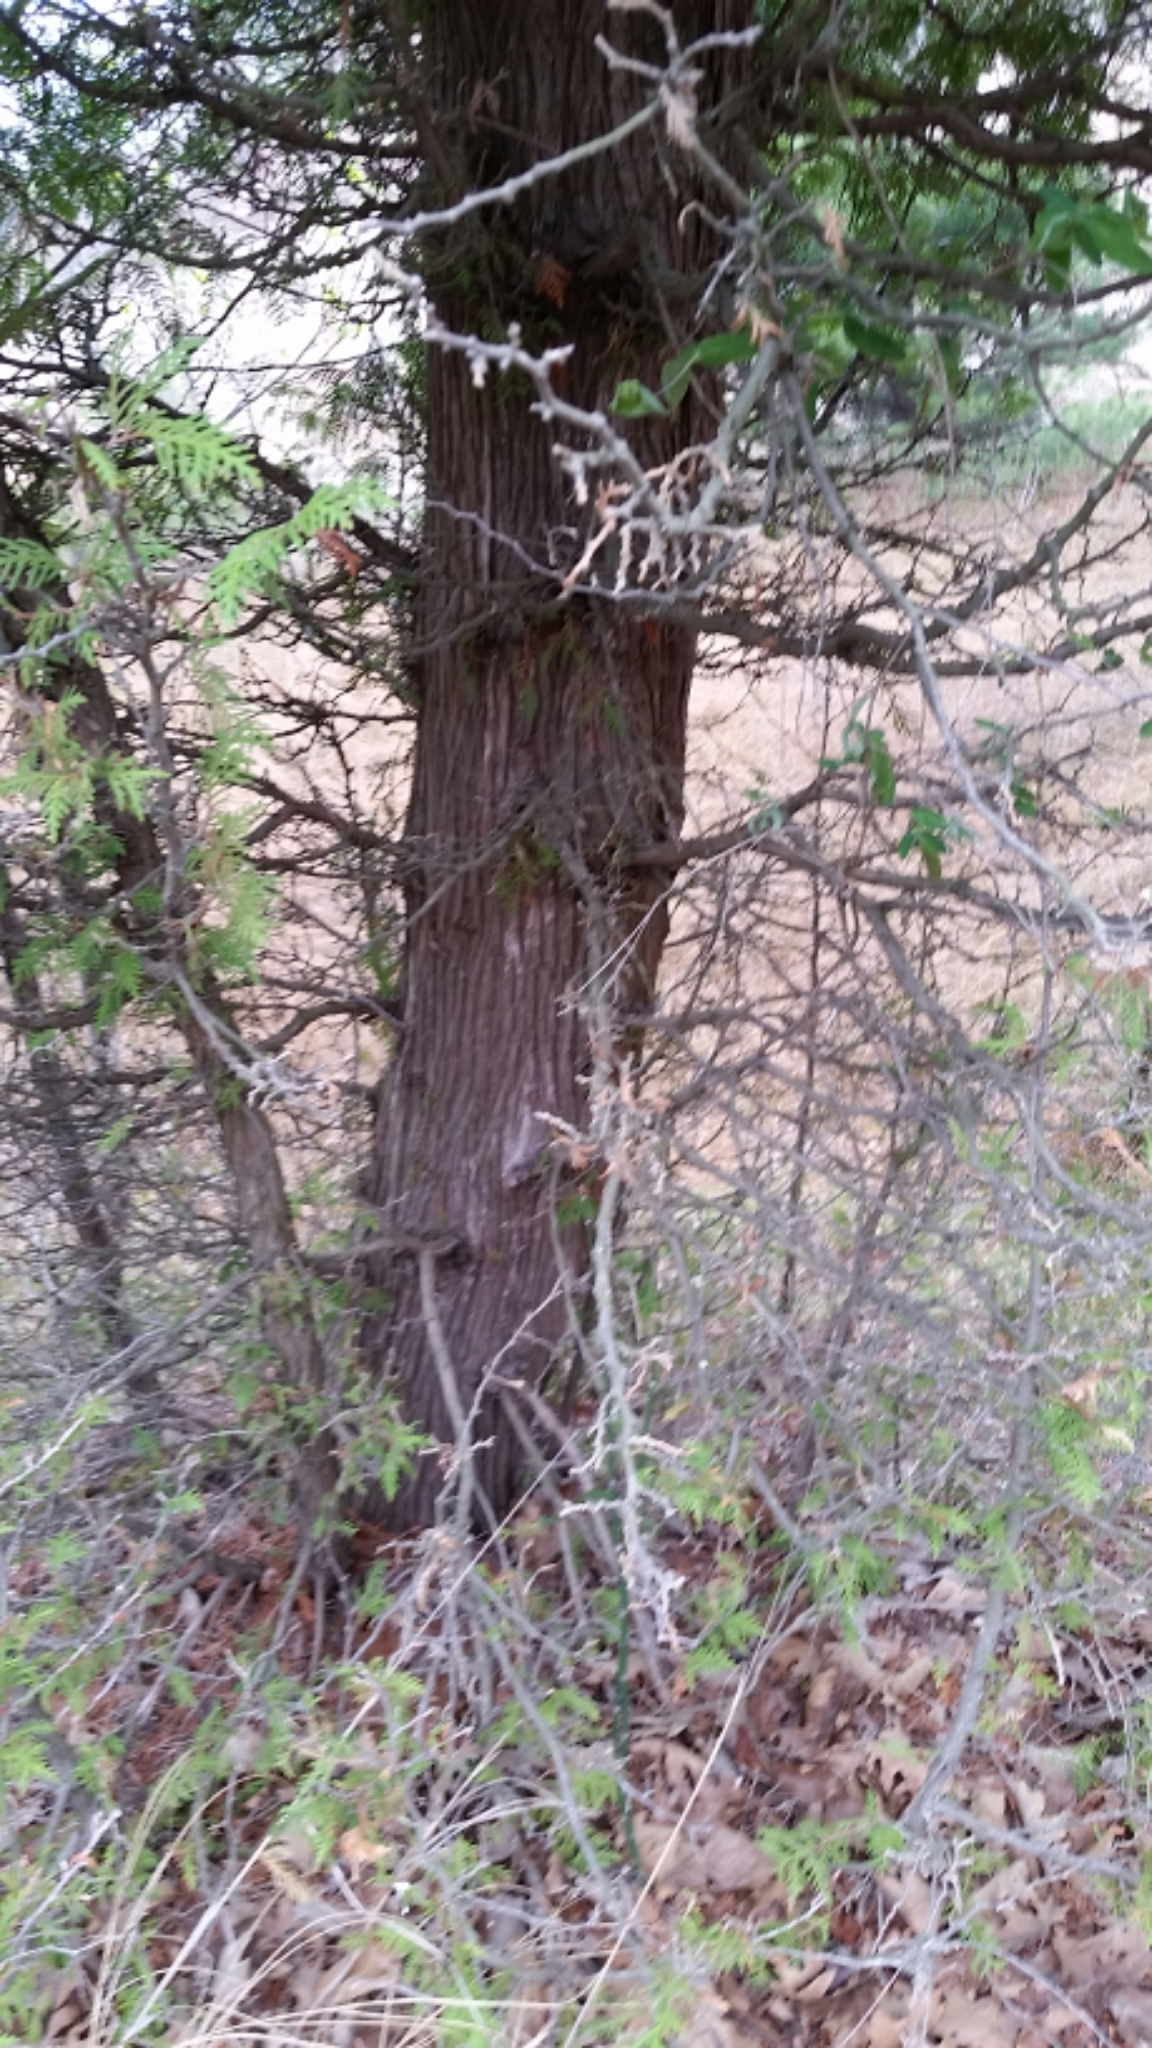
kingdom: Plantae
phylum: Tracheophyta
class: Pinopsida
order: Pinales
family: Cupressaceae
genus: Thuja
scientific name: Thuja occidentalis
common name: Northern white-cedar
